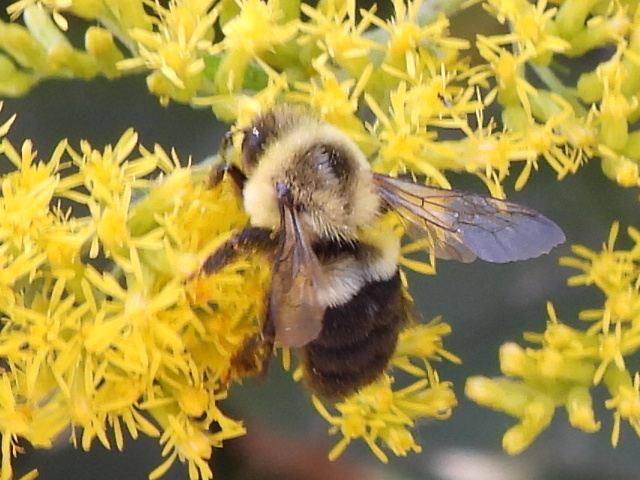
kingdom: Animalia
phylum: Arthropoda
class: Insecta
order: Hymenoptera
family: Apidae
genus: Bombus
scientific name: Bombus impatiens
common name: Common eastern bumble bee
